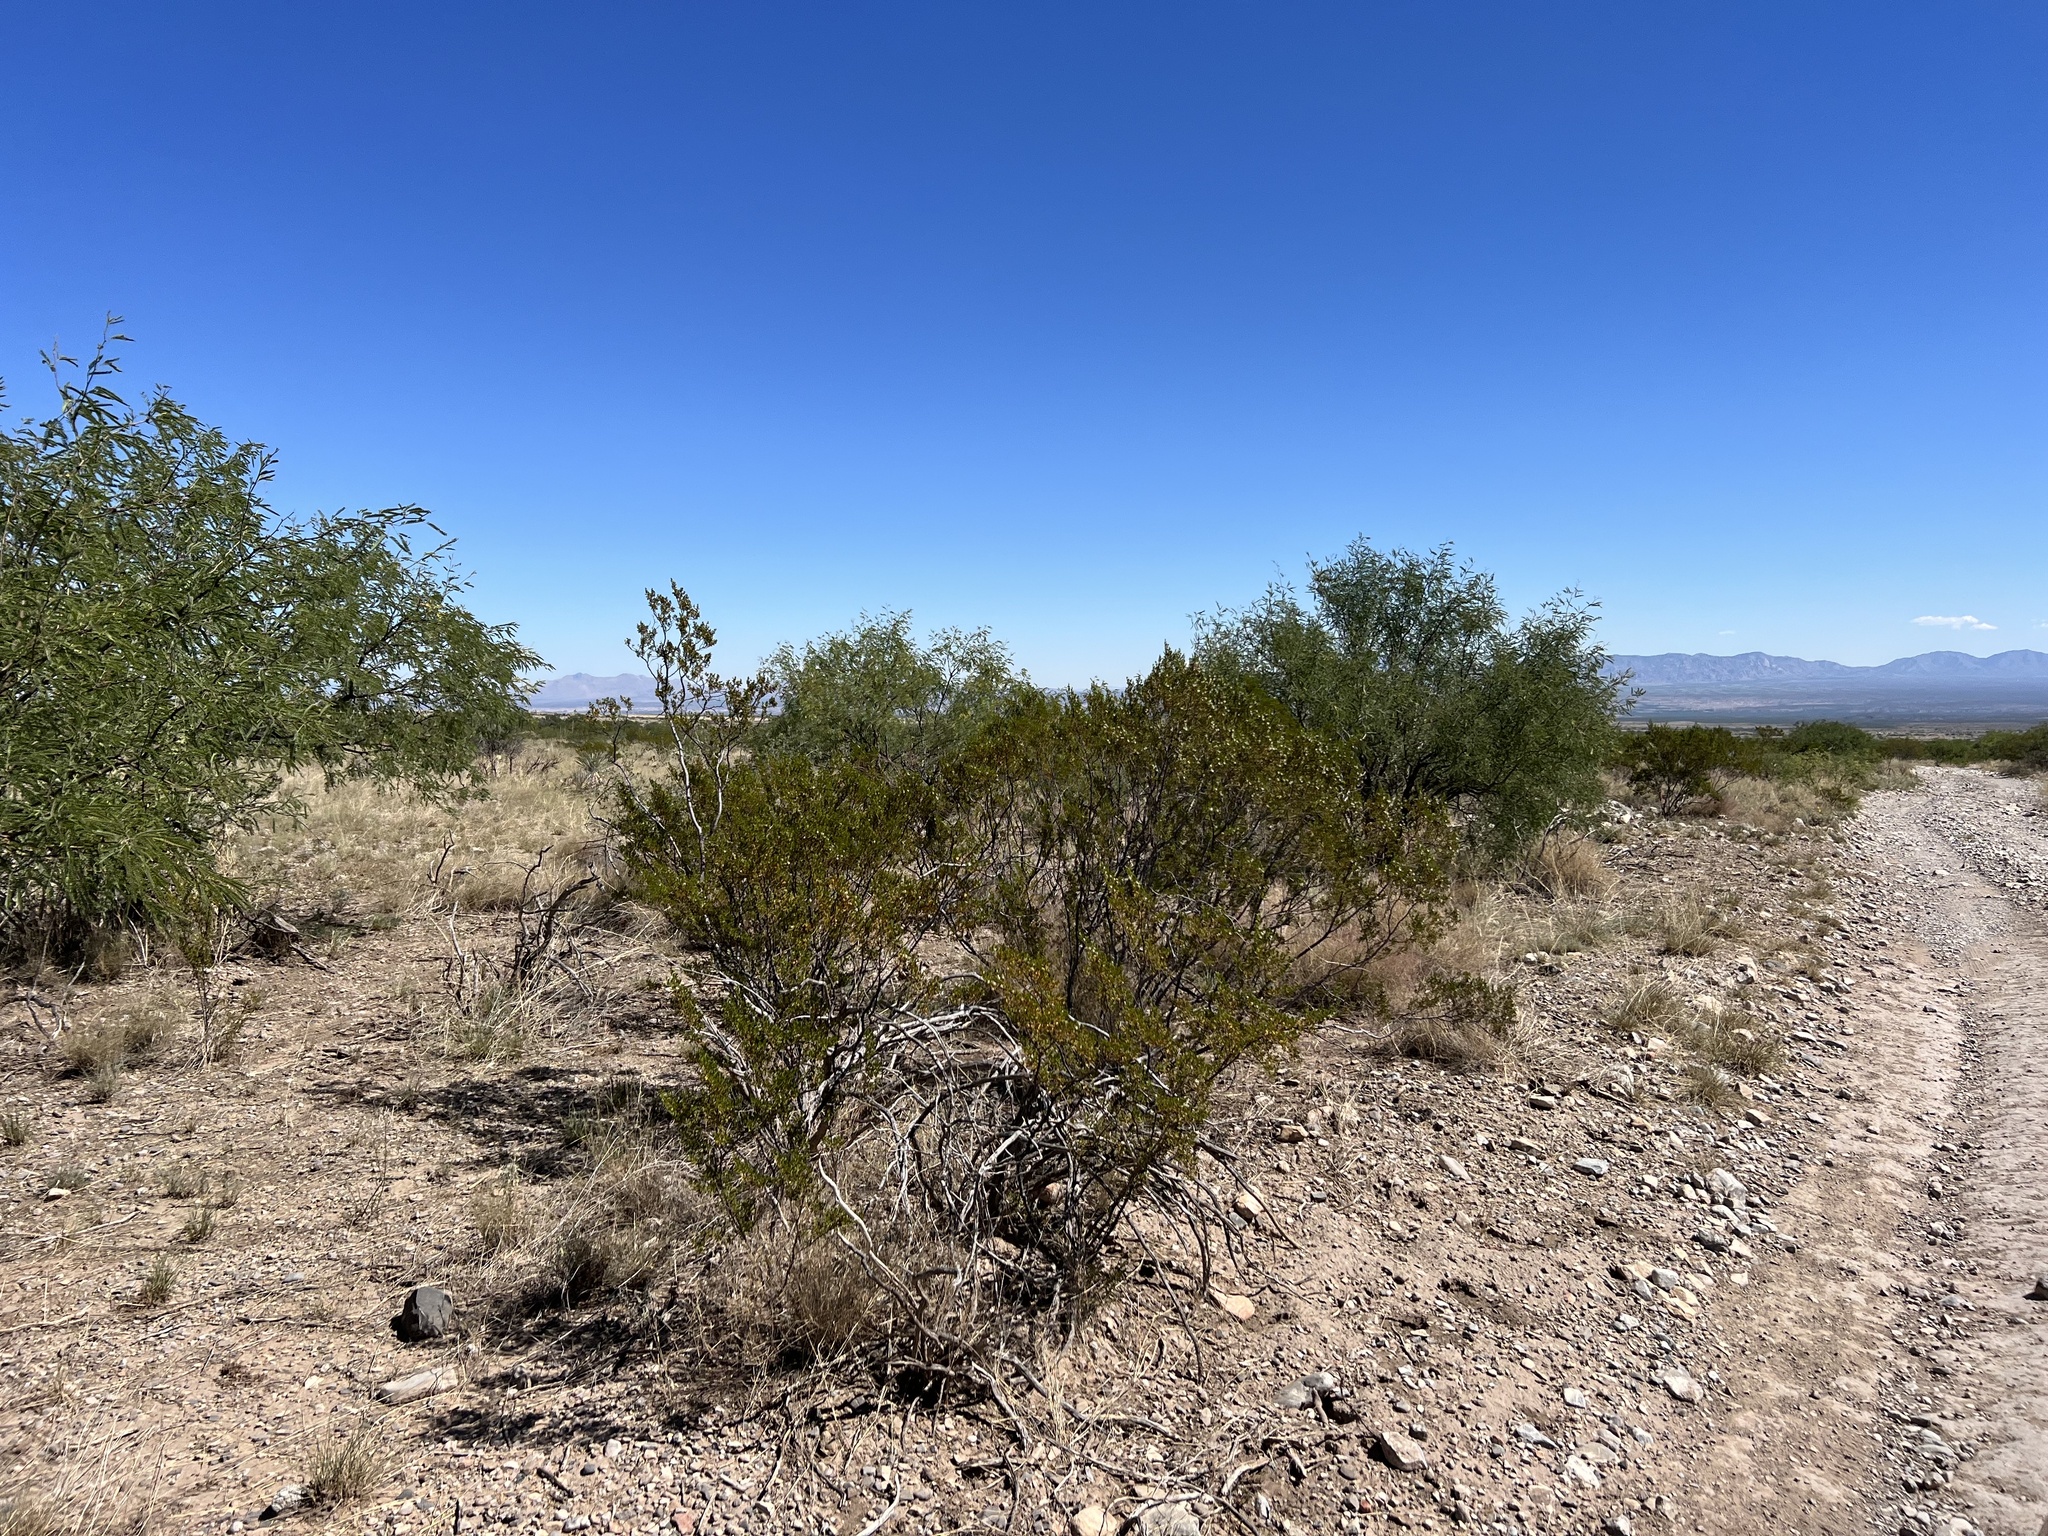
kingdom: Plantae
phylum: Tracheophyta
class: Magnoliopsida
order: Zygophyllales
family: Zygophyllaceae
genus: Larrea
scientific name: Larrea tridentata
